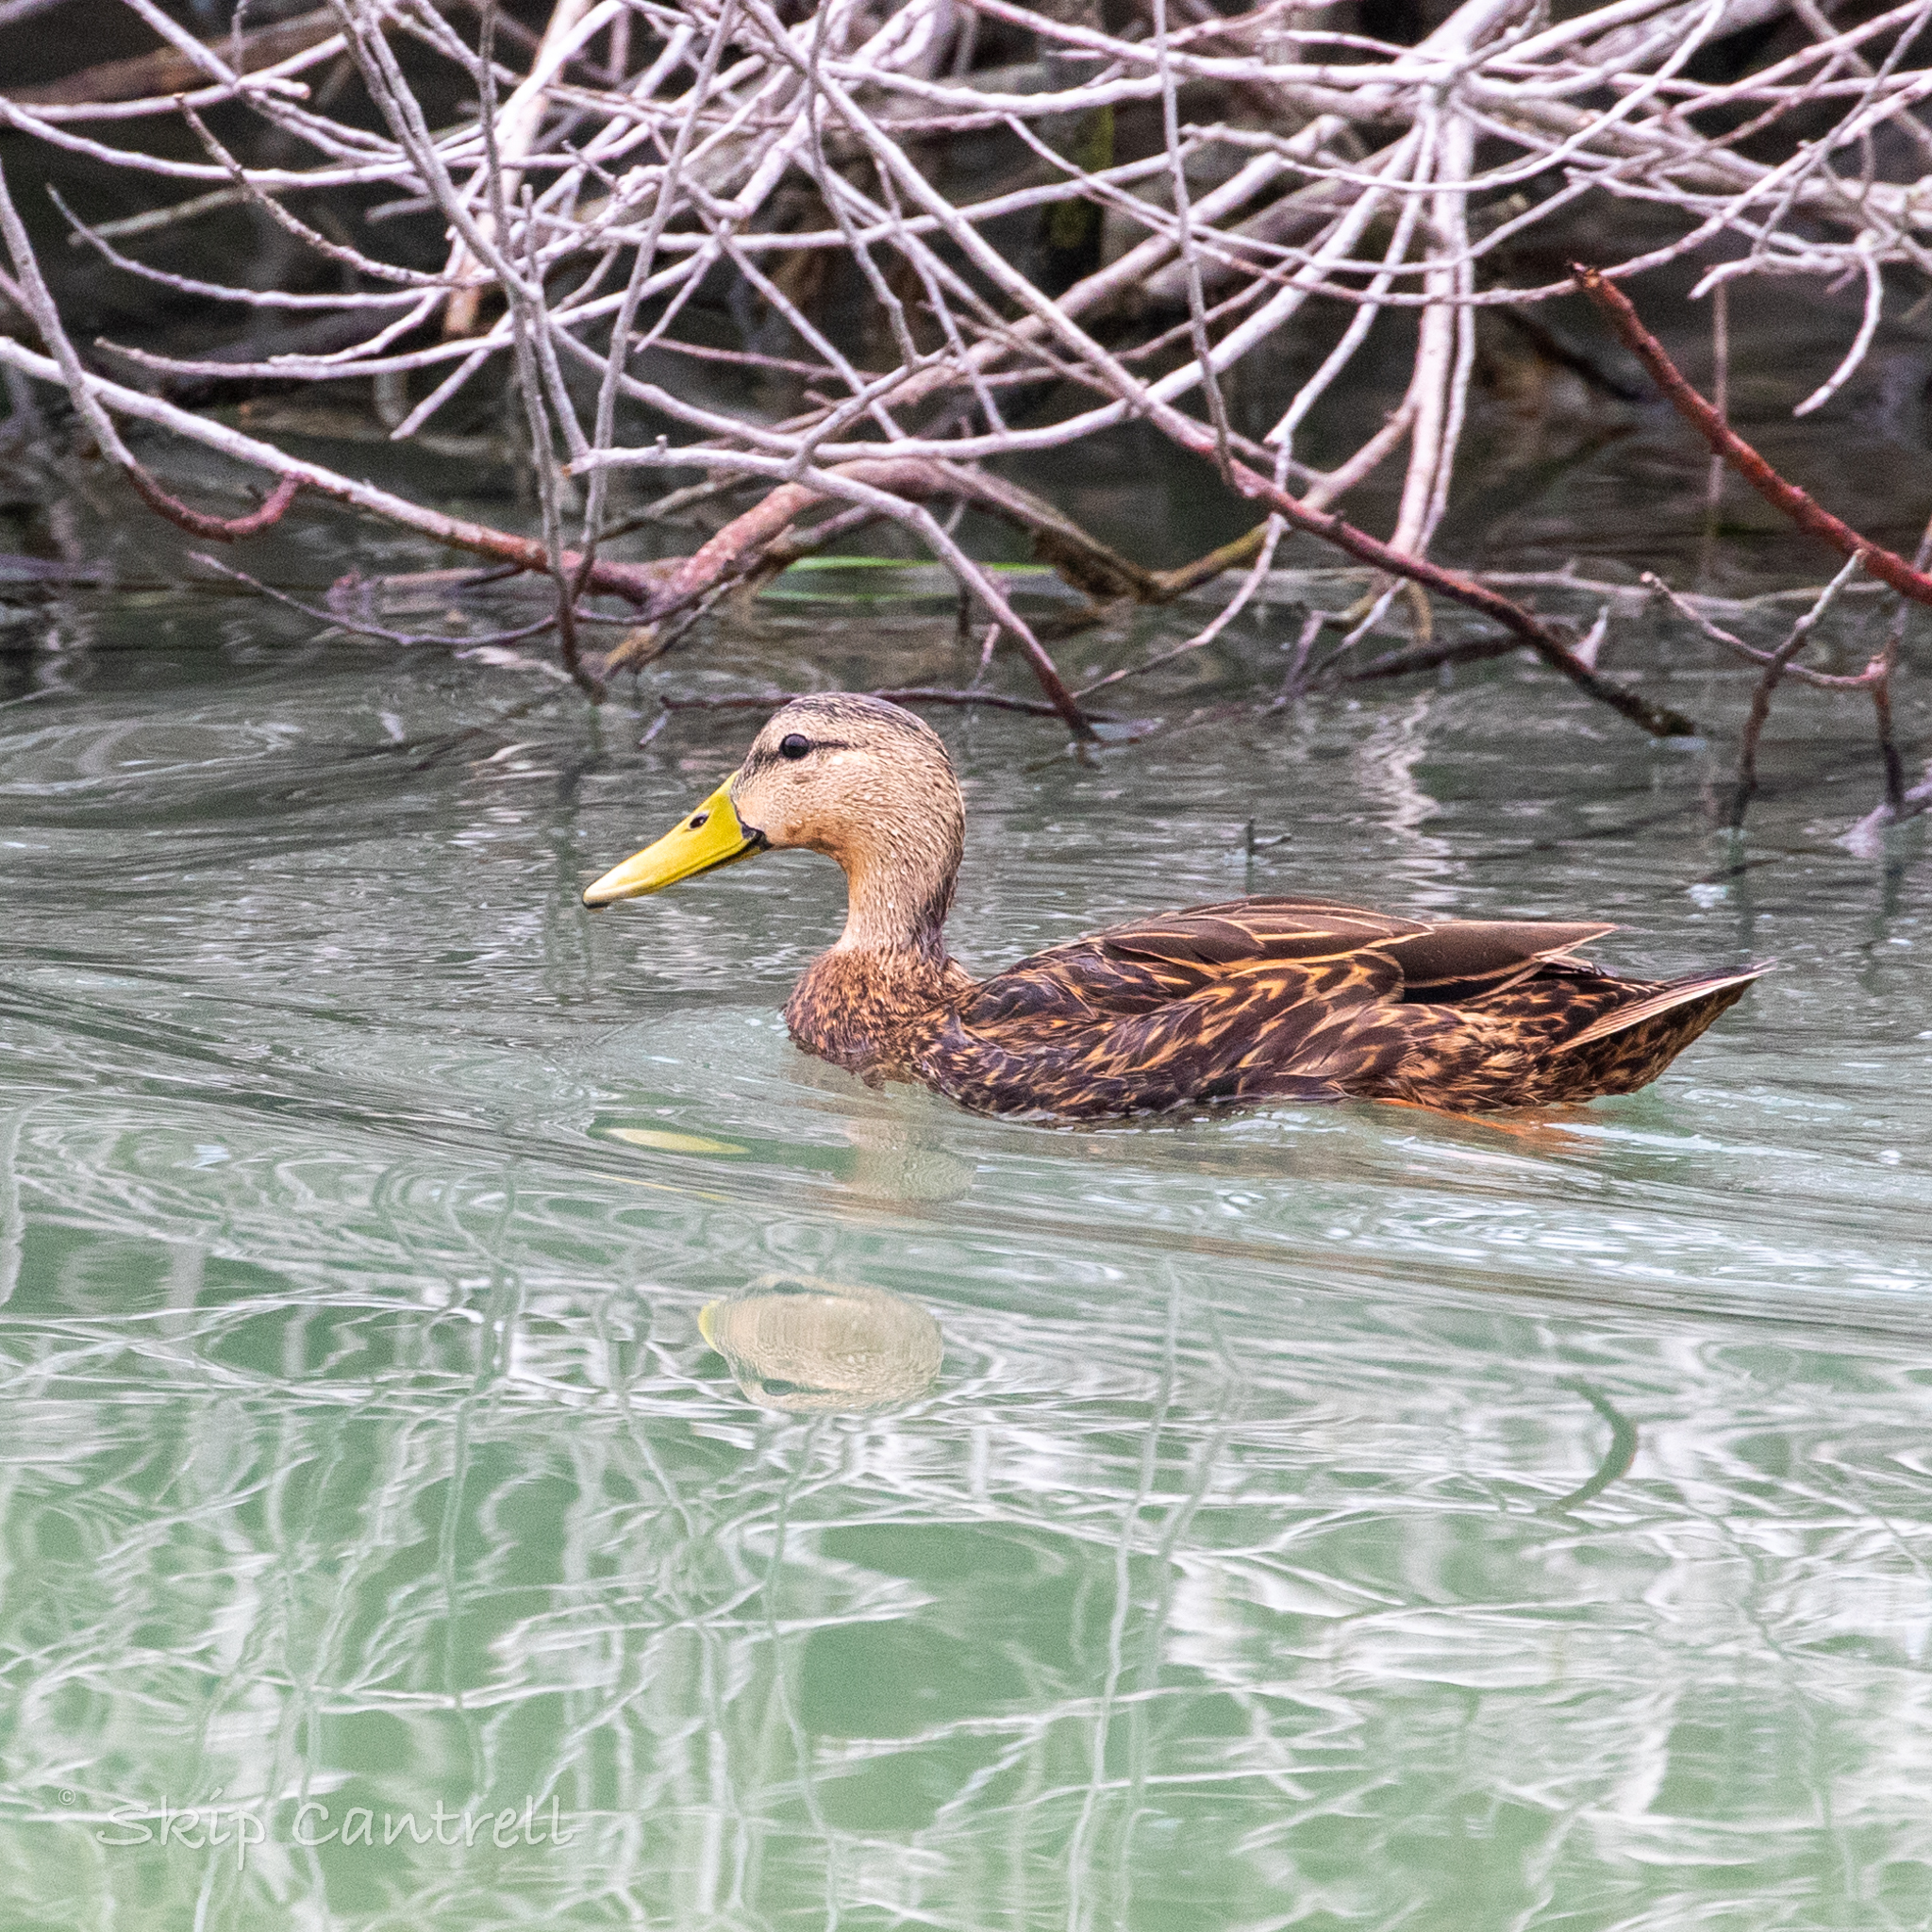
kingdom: Animalia
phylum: Chordata
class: Aves
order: Anseriformes
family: Anatidae
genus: Anas
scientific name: Anas fulvigula
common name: Mottled duck
